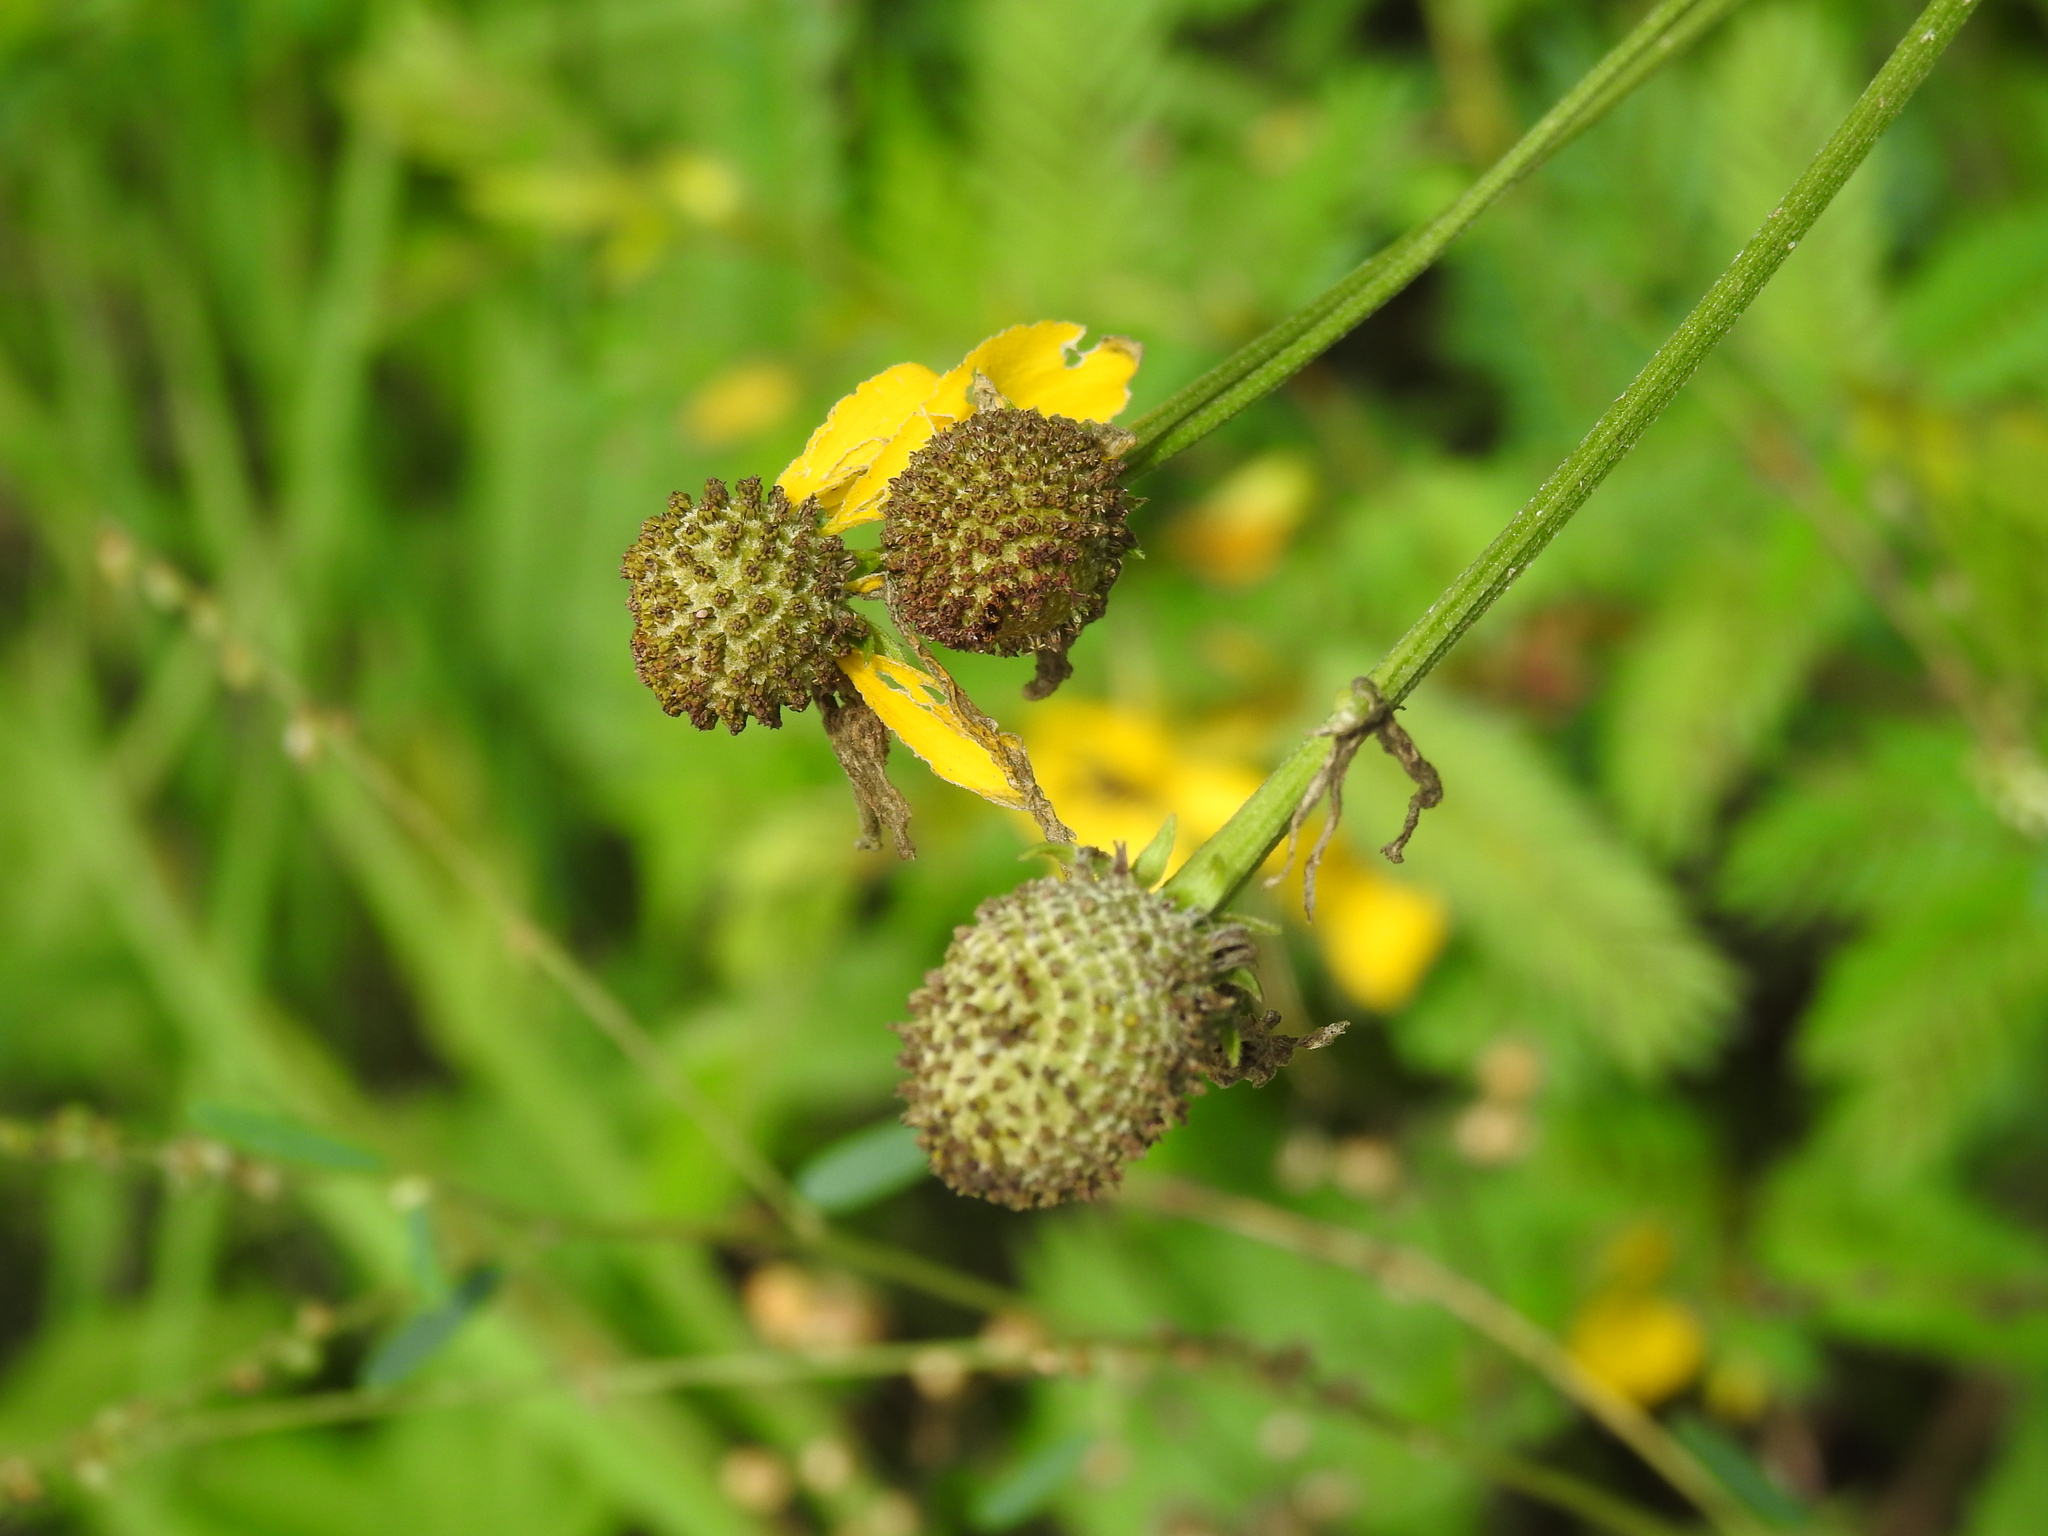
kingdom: Plantae
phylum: Tracheophyta
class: Magnoliopsida
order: Asterales
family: Asteraceae
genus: Ratibida
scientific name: Ratibida pinnata
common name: Drooping prairie-coneflower
